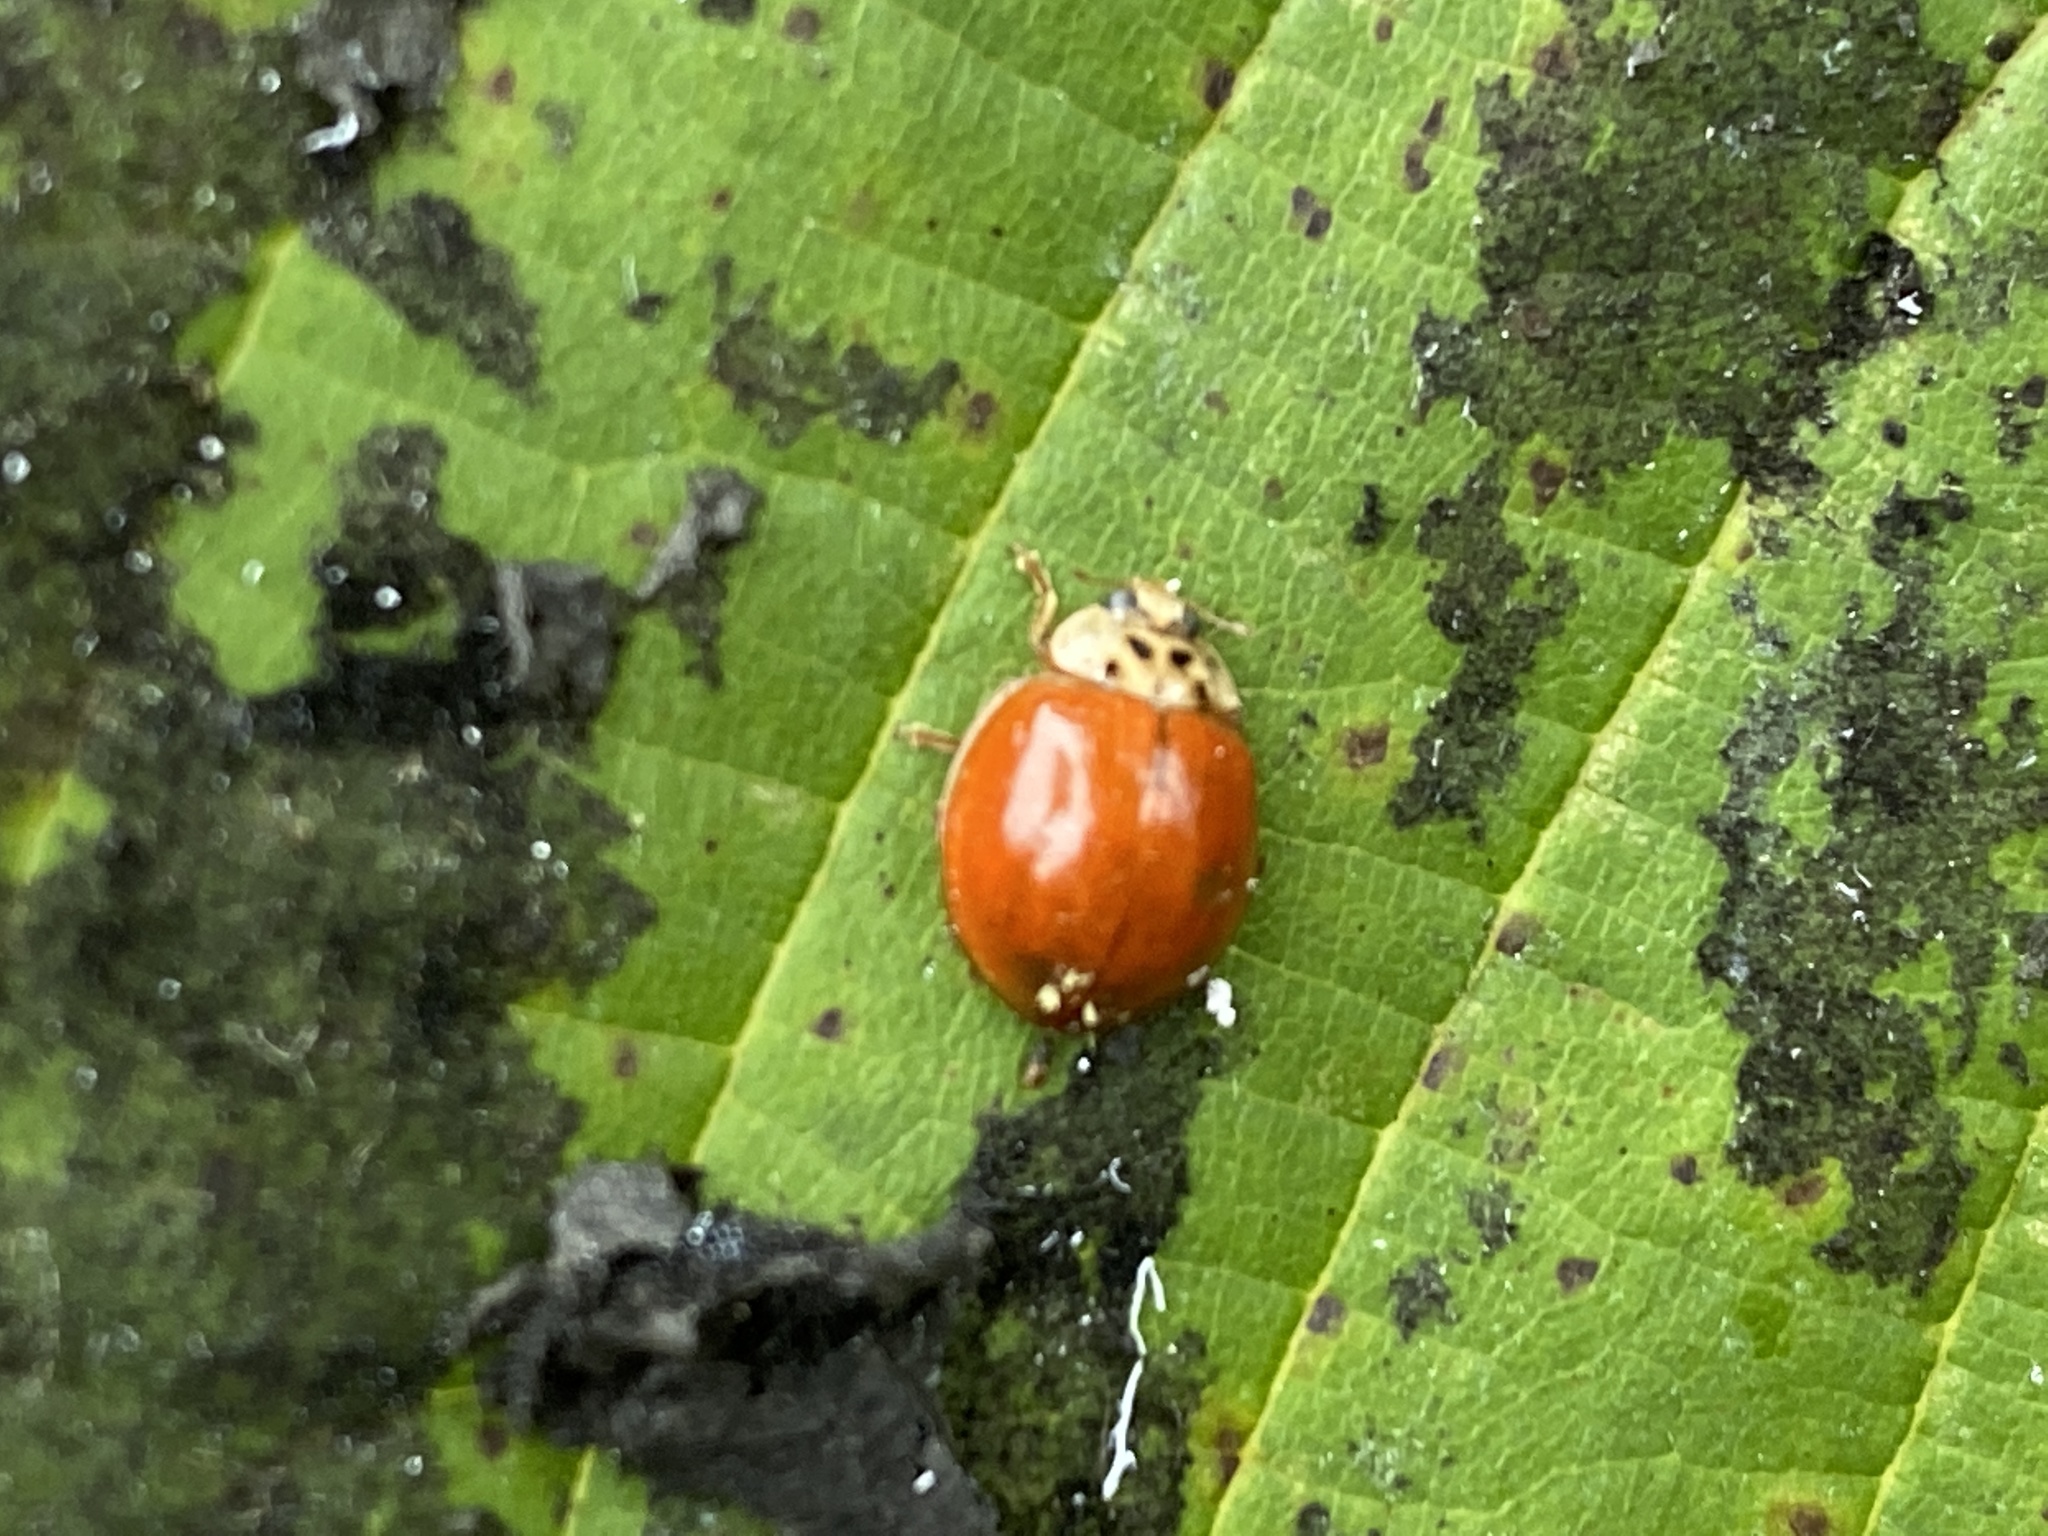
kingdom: Animalia
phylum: Arthropoda
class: Insecta
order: Coleoptera
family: Coccinellidae
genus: Harmonia
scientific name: Harmonia axyridis
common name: Harlequin ladybird
